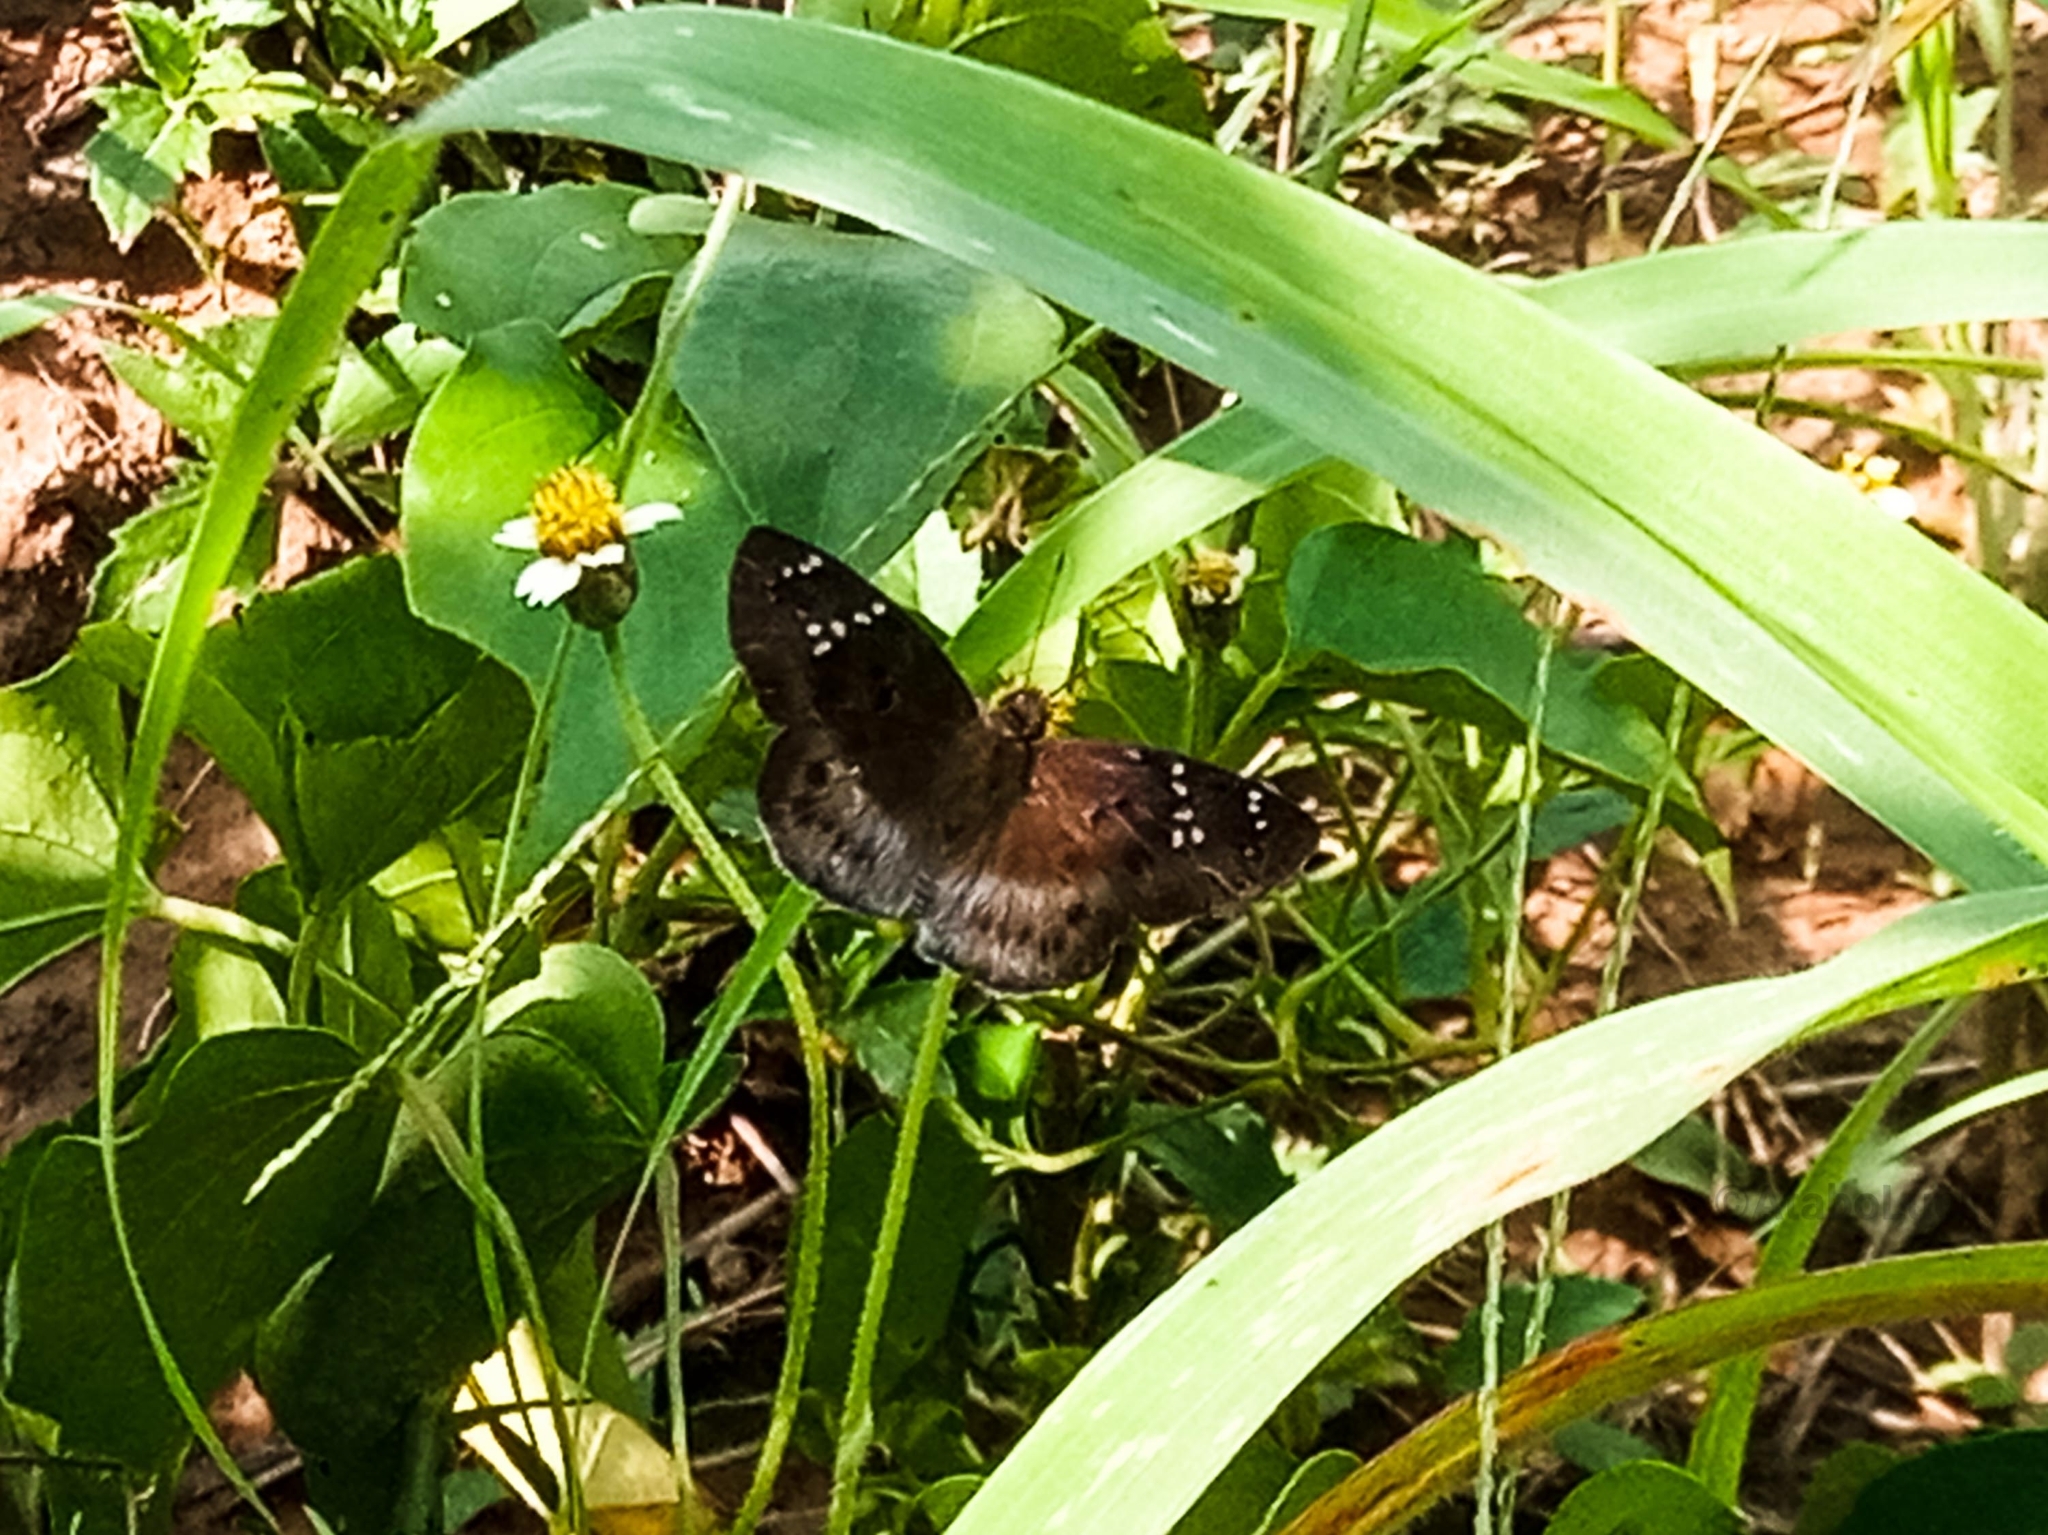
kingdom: Animalia
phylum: Arthropoda
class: Insecta
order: Lepidoptera
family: Hesperiidae
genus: Tagiades
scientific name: Tagiades flesus
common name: Clouded flat
